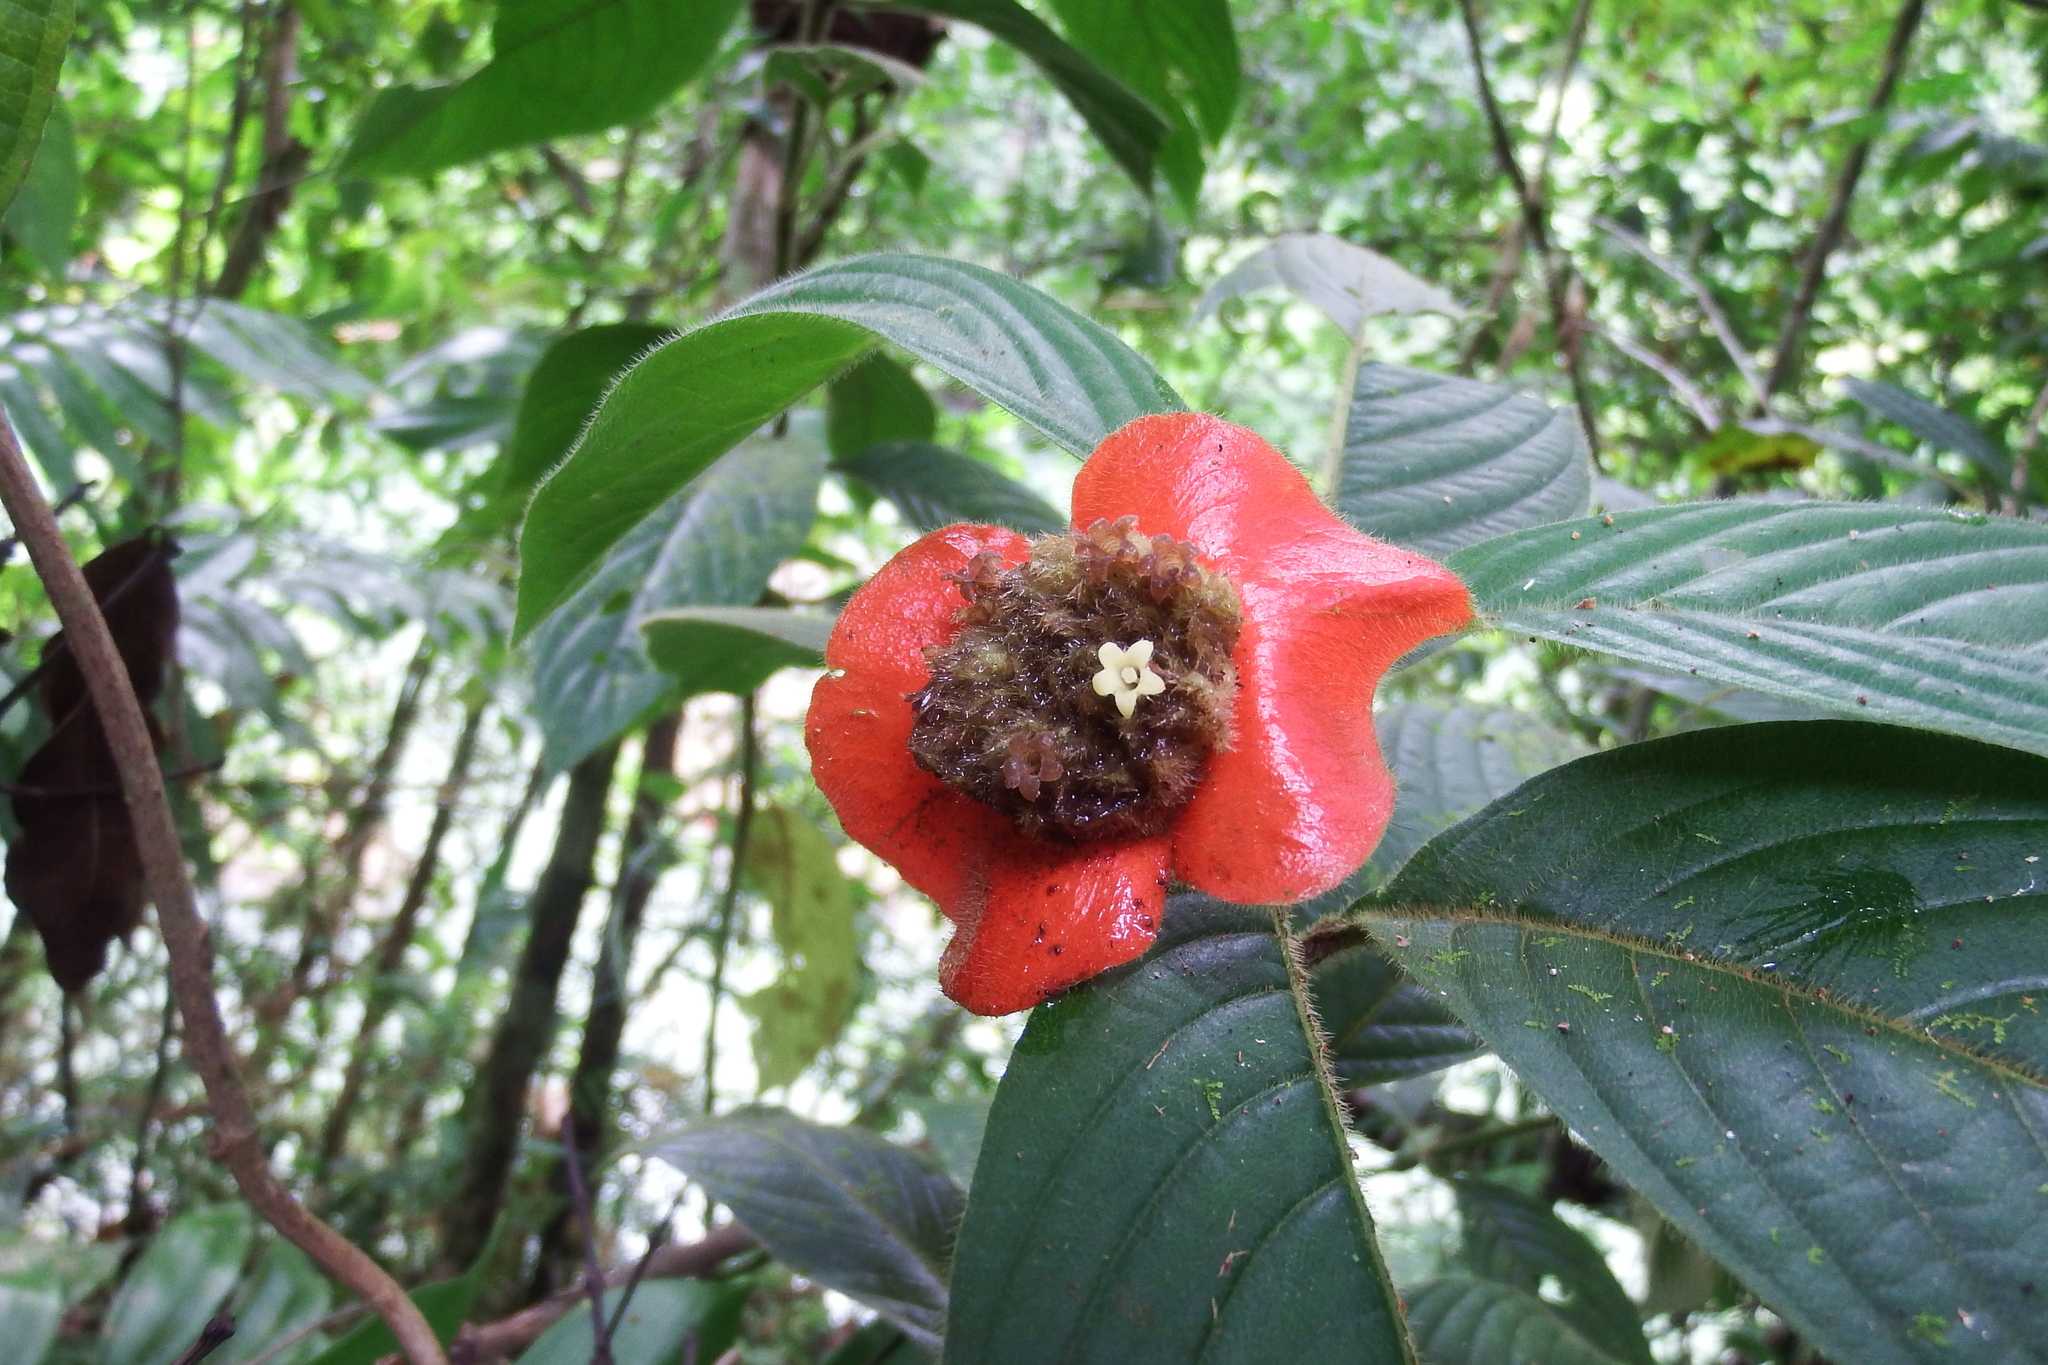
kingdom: Plantae
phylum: Tracheophyta
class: Magnoliopsida
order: Gentianales
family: Rubiaceae
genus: Palicourea
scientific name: Palicourea tomentosa
